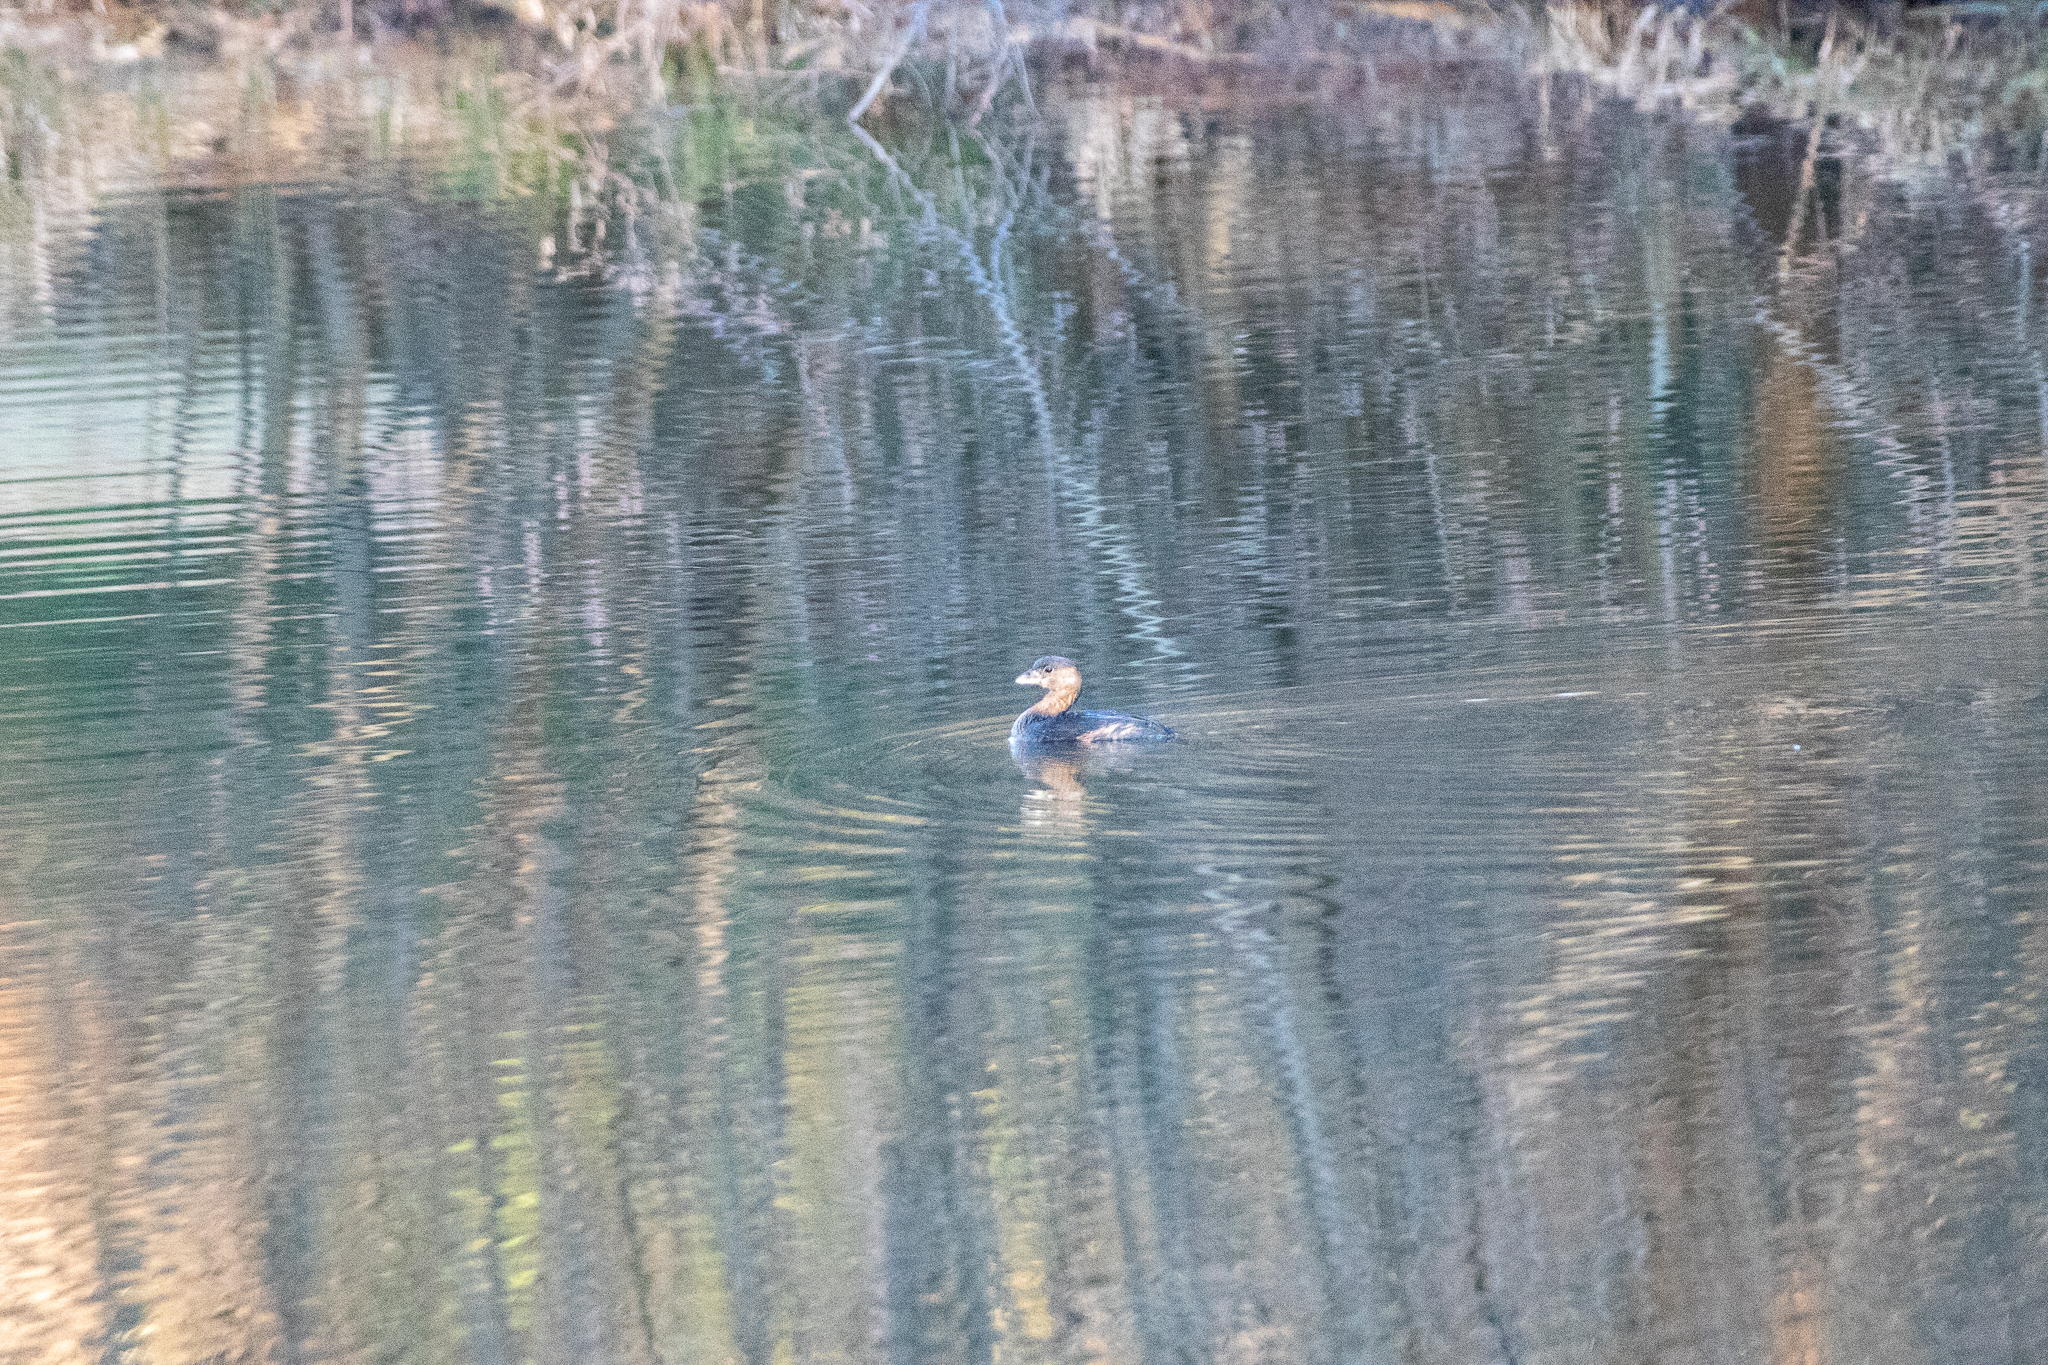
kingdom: Animalia
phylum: Chordata
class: Aves
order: Podicipediformes
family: Podicipedidae
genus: Podilymbus
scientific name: Podilymbus podiceps
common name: Pied-billed grebe
